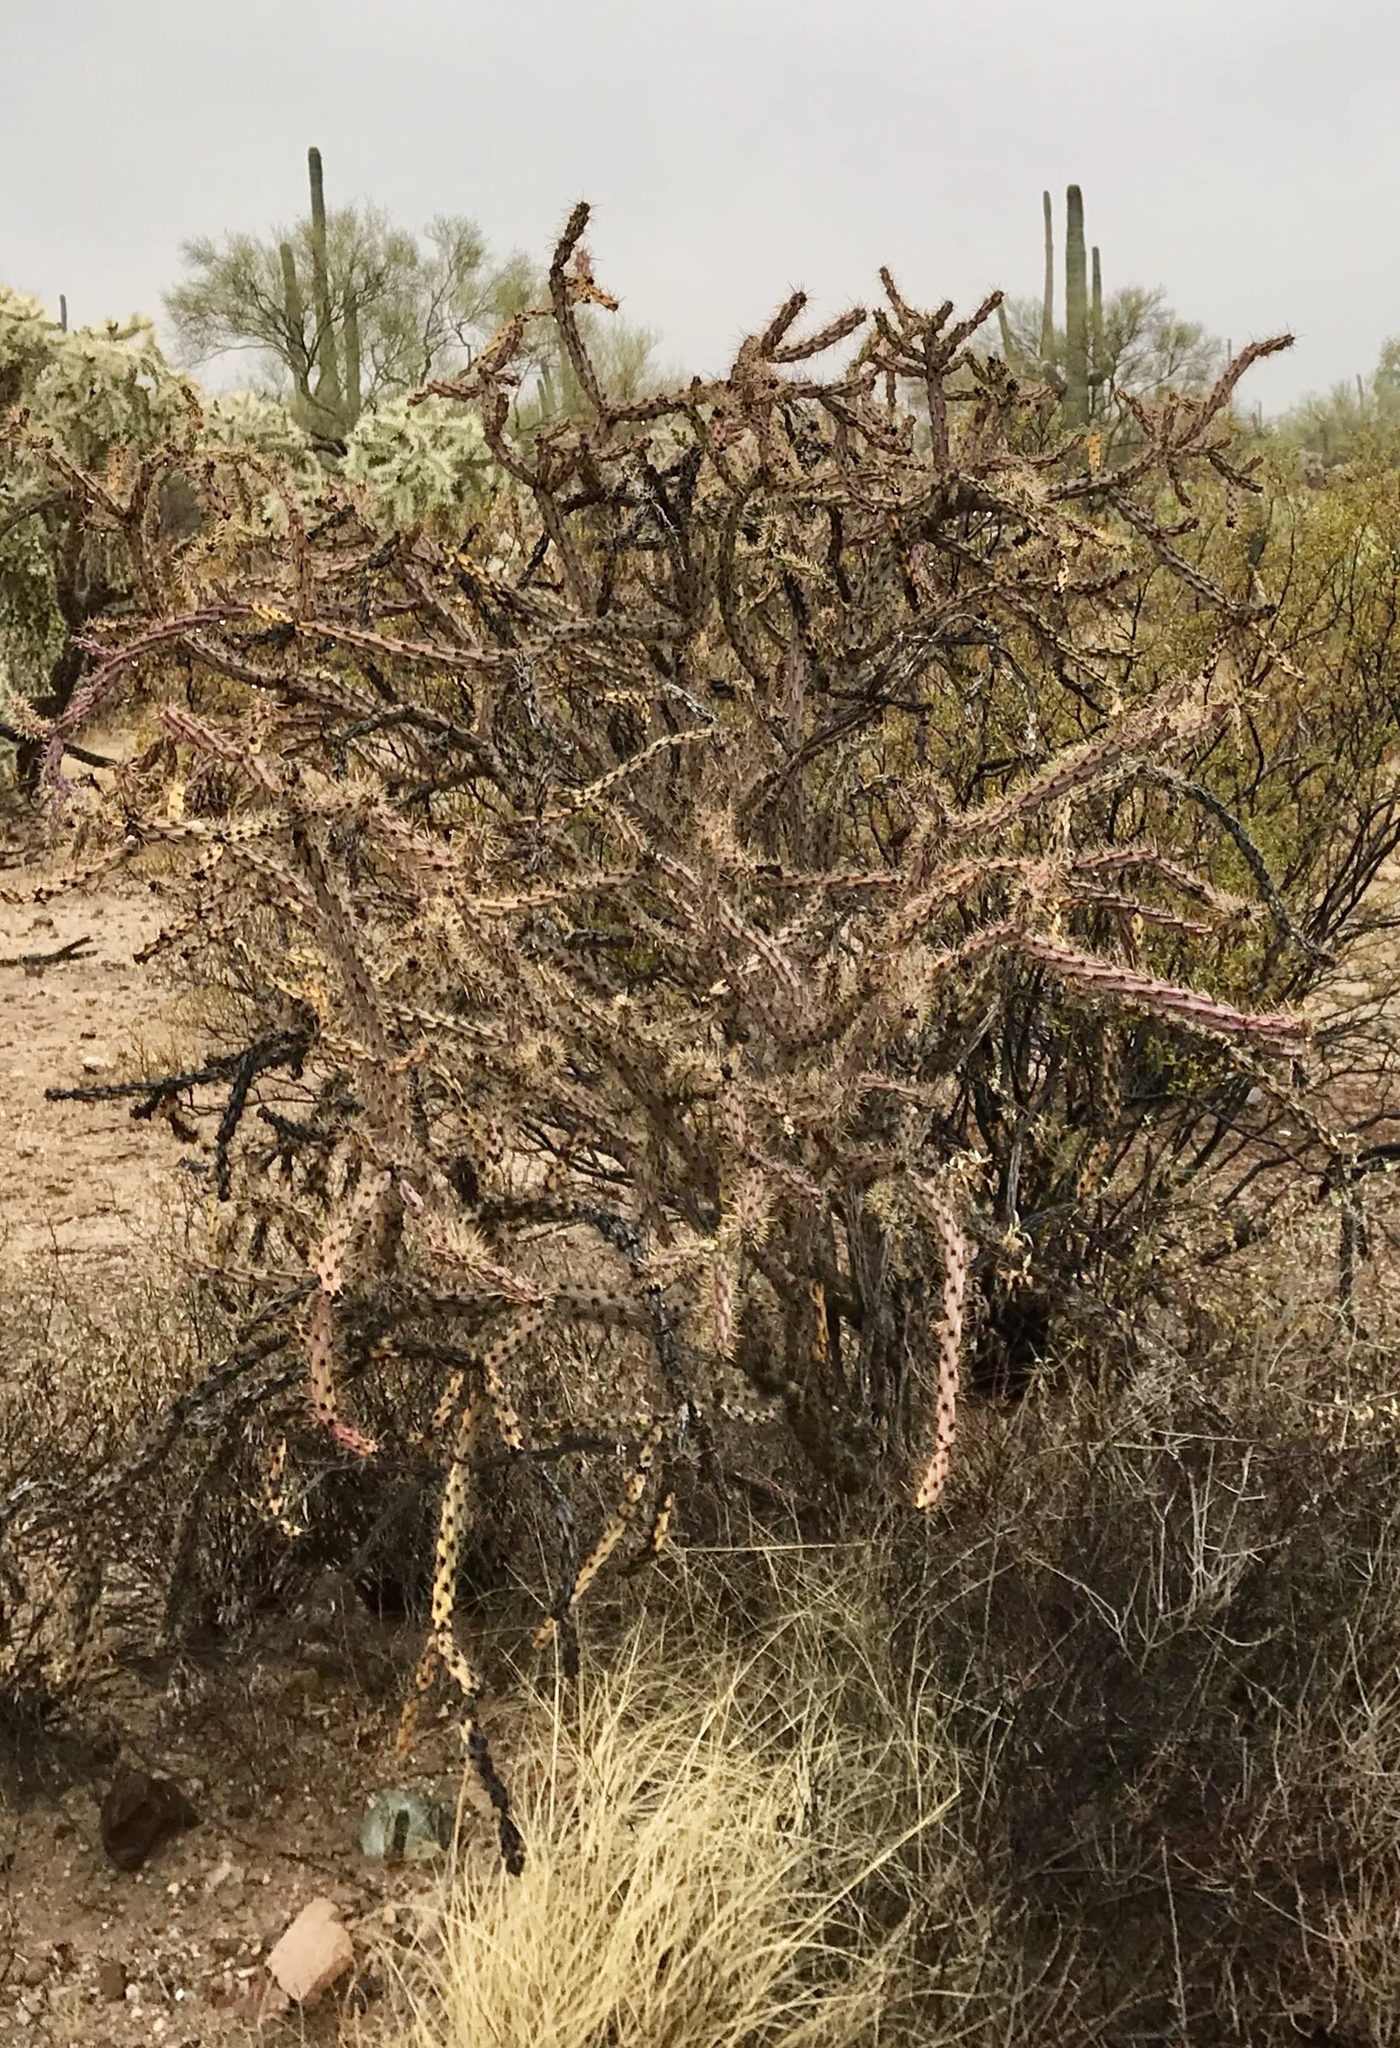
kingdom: Plantae
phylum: Tracheophyta
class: Magnoliopsida
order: Caryophyllales
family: Cactaceae
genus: Cylindropuntia
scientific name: Cylindropuntia thurberi
